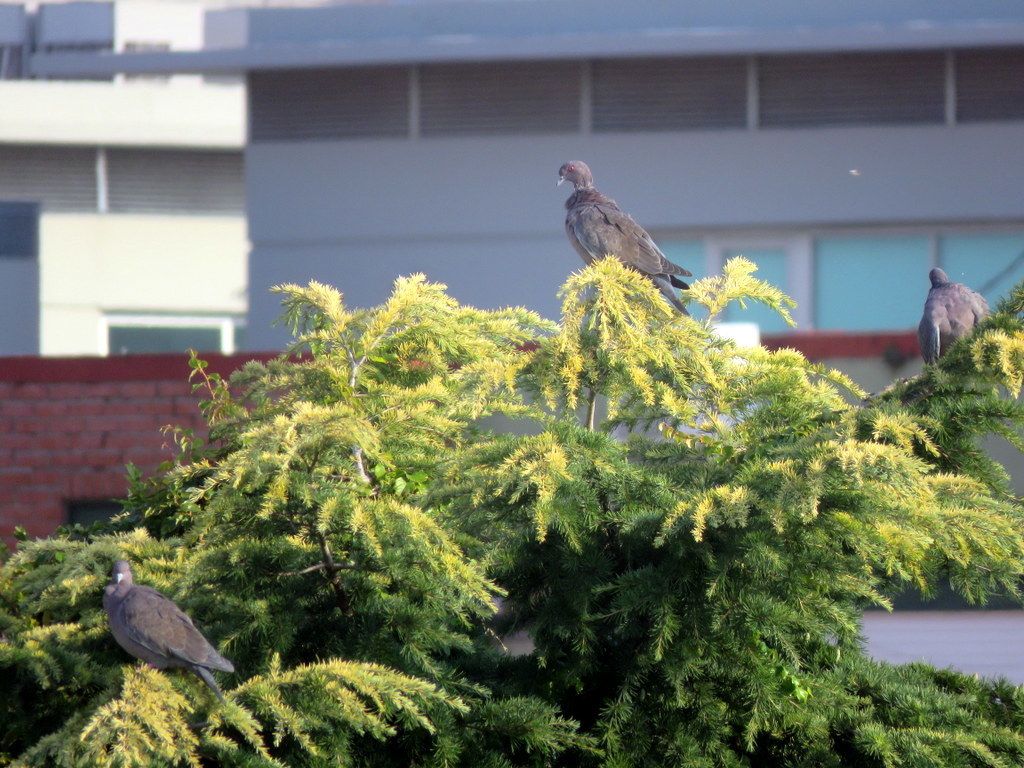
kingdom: Animalia
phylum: Chordata
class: Aves
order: Columbiformes
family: Columbidae
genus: Patagioenas
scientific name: Patagioenas picazuro
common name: Picazuro pigeon
